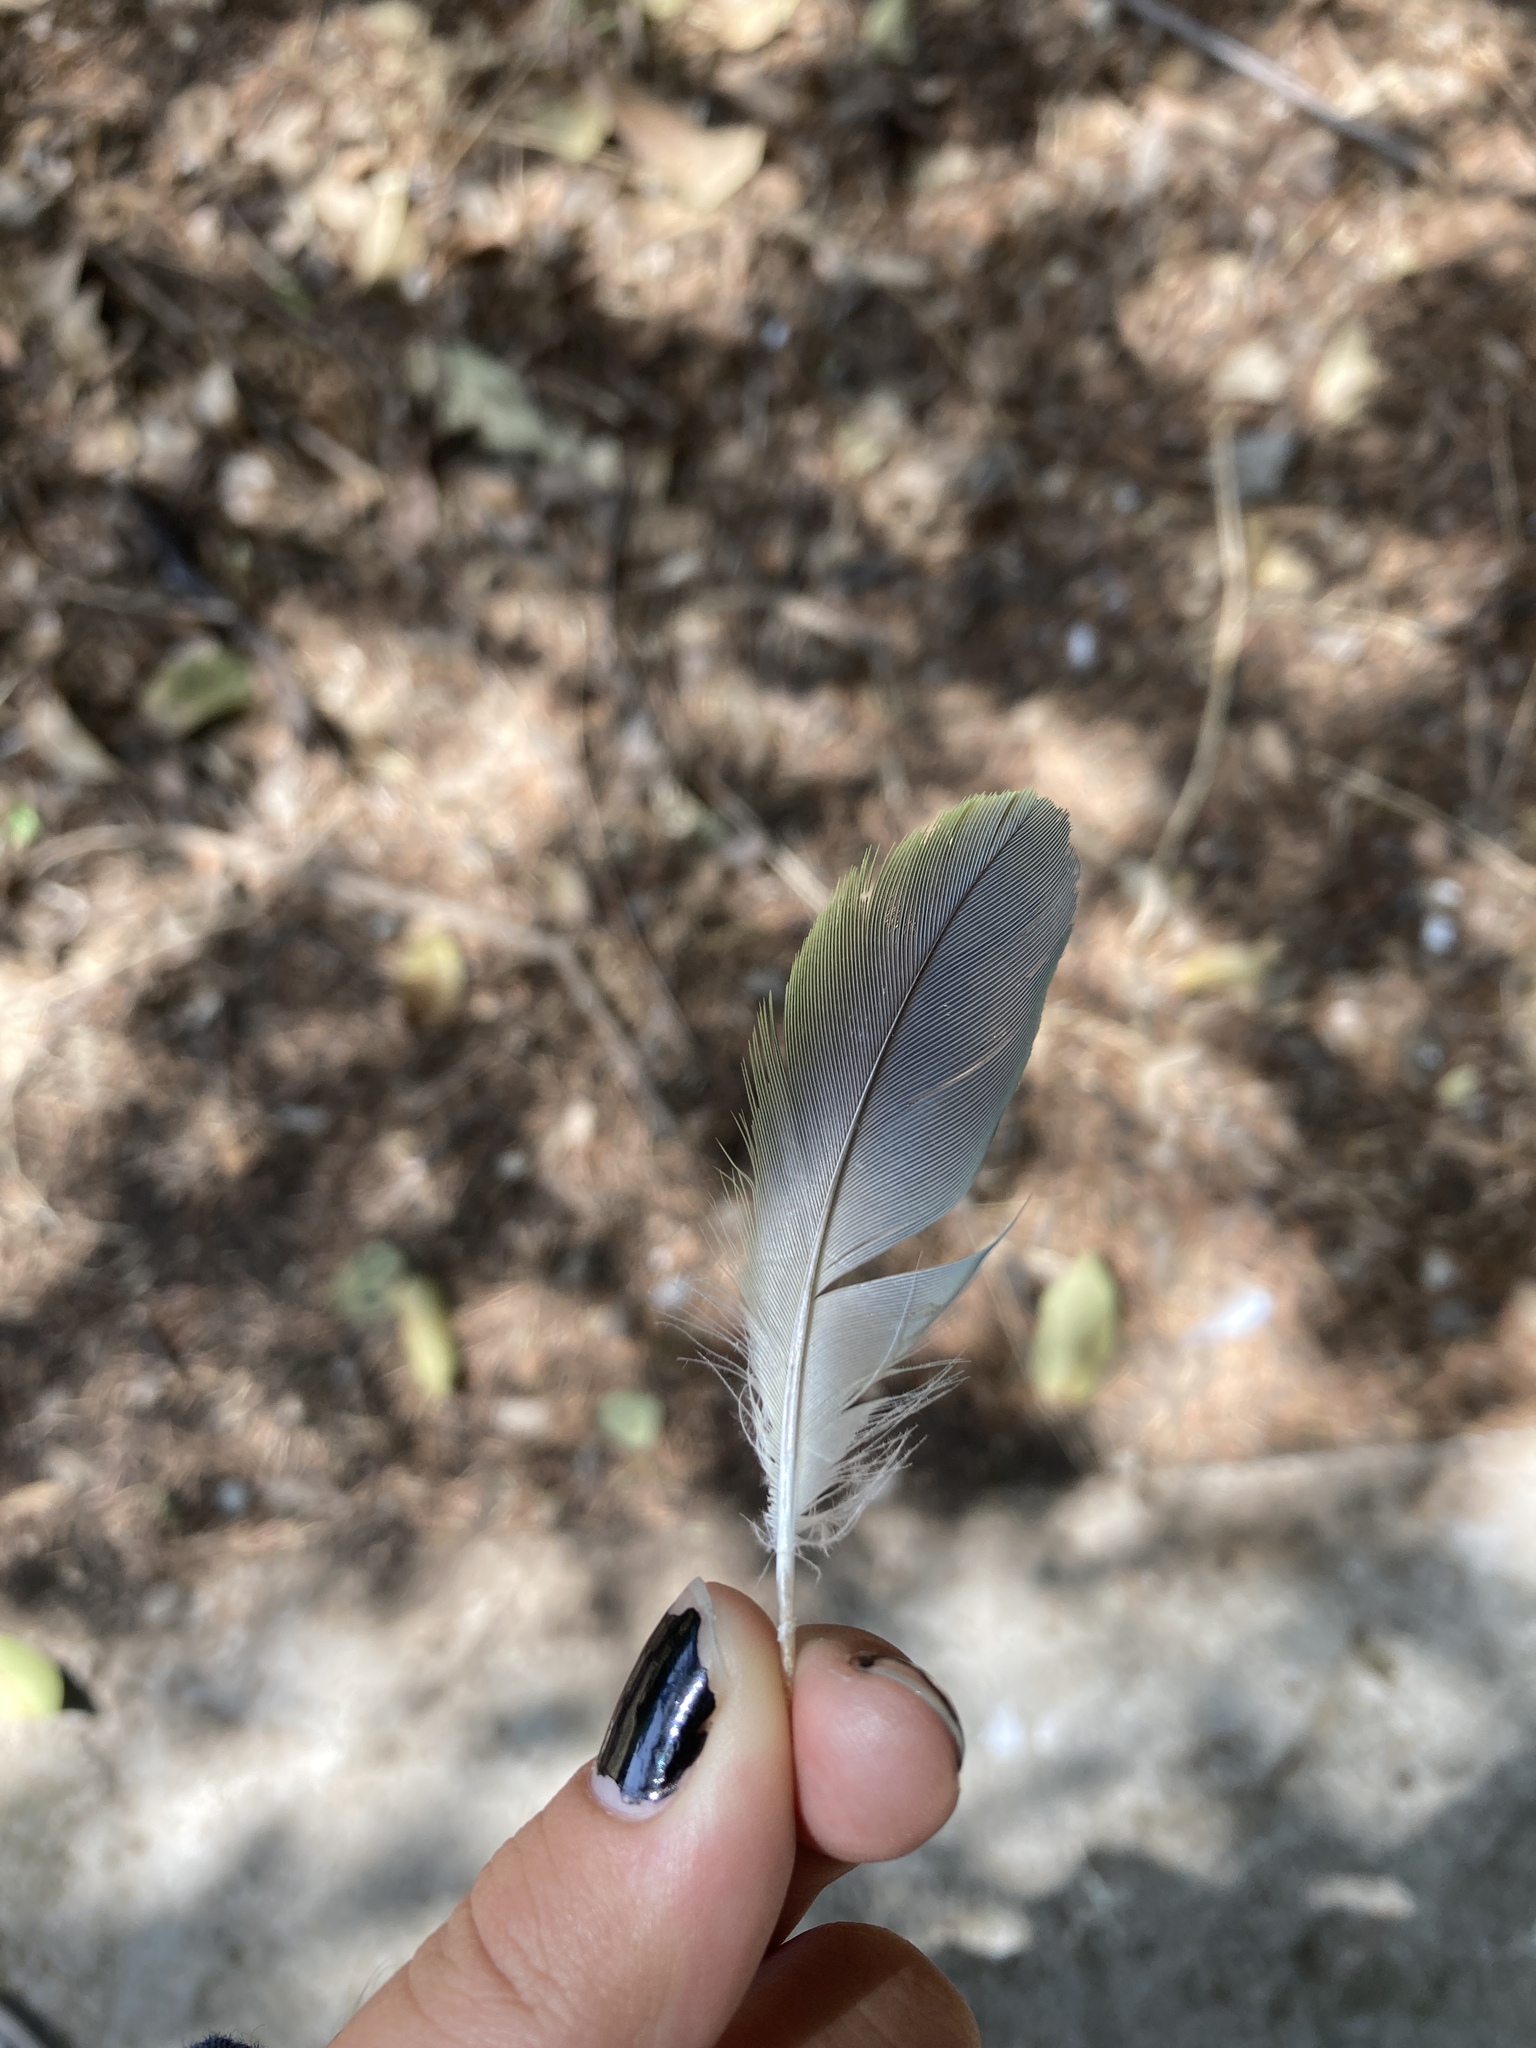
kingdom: Animalia
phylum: Chordata
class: Aves
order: Psittaciformes
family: Psittacidae
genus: Myiopsitta
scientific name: Myiopsitta monachus
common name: Monk parakeet
